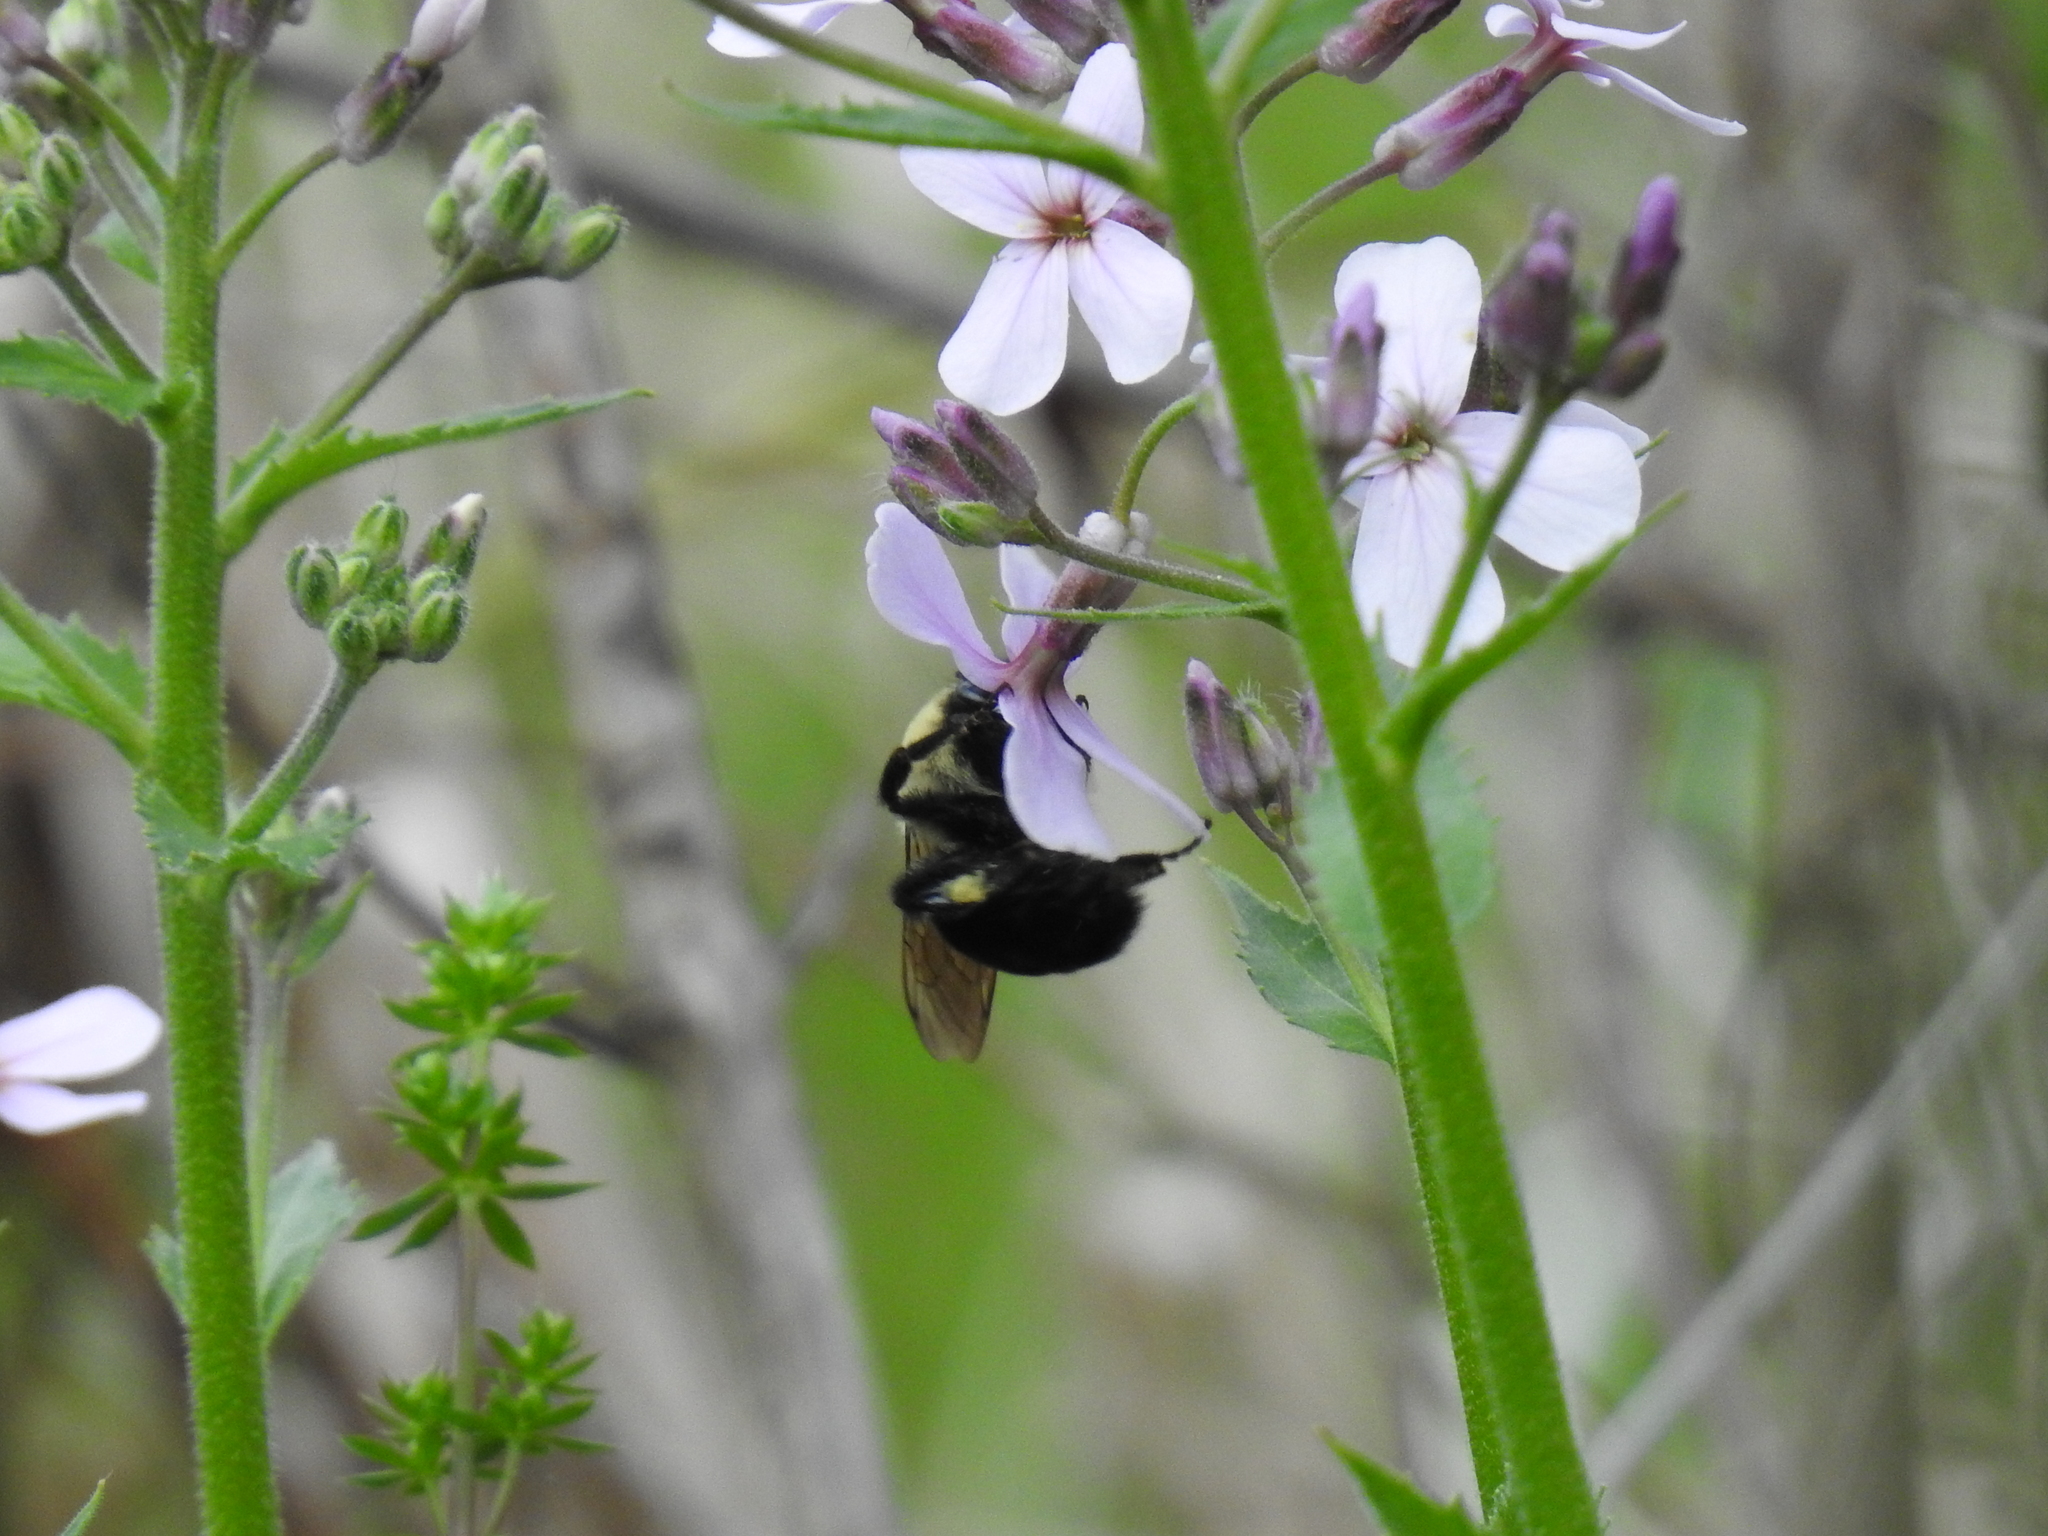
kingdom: Animalia
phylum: Arthropoda
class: Insecta
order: Hymenoptera
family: Apidae
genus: Bombus
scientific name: Bombus bimaculatus
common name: Two-spotted bumble bee
